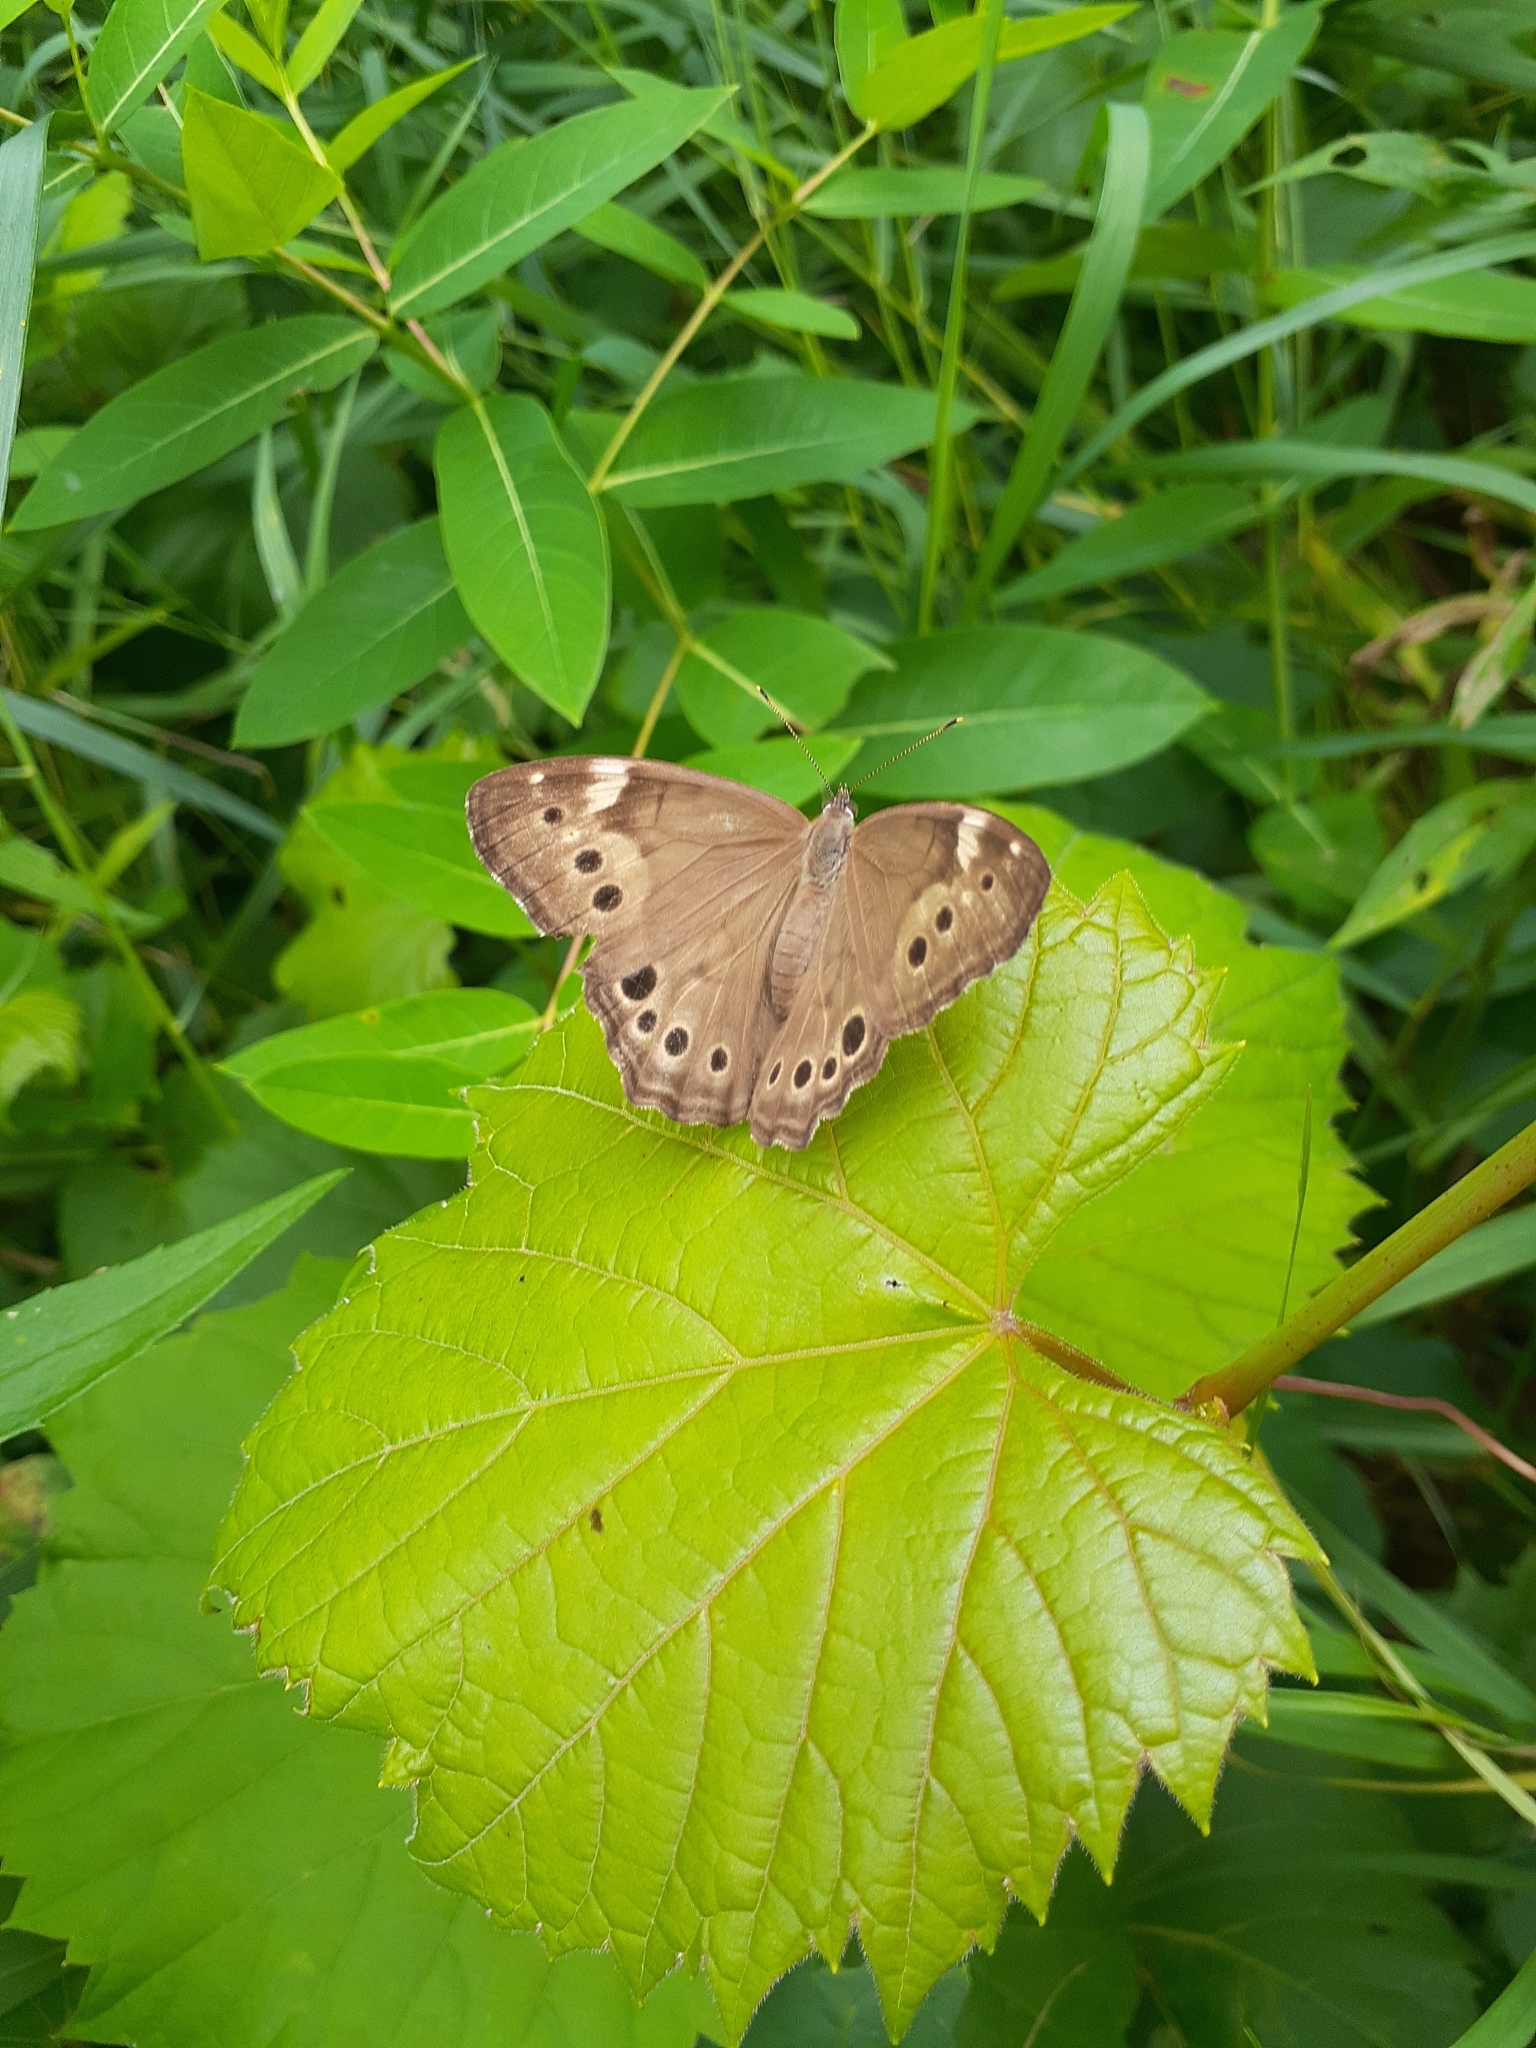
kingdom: Animalia
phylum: Arthropoda
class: Insecta
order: Lepidoptera
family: Nymphalidae
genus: Lethe
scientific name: Lethe anthedon
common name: Northern pearly-eye
